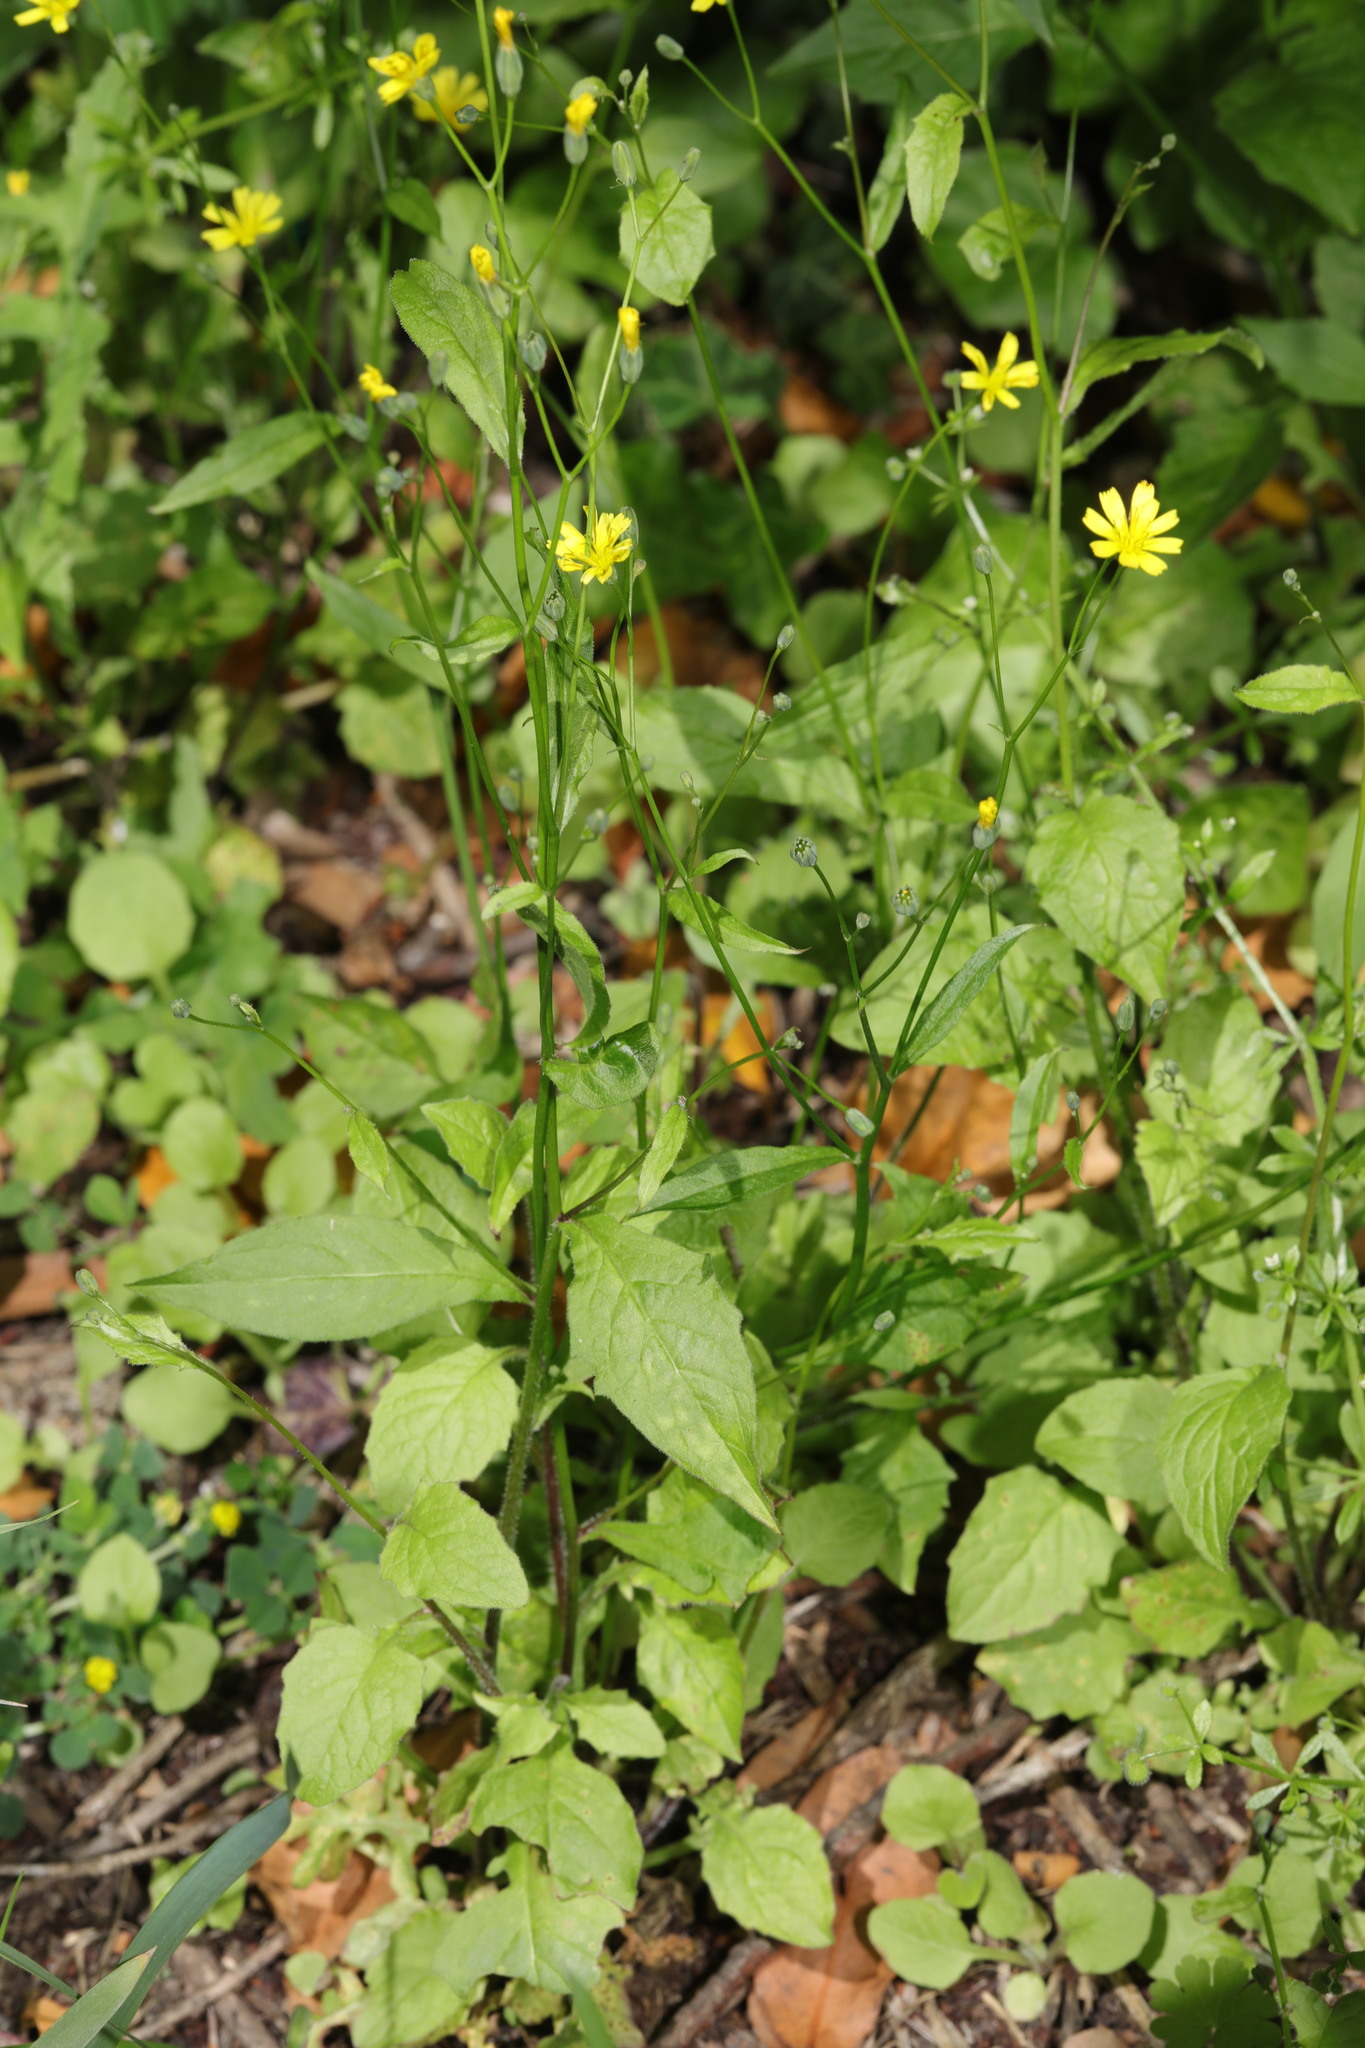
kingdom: Plantae
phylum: Tracheophyta
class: Magnoliopsida
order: Asterales
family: Asteraceae
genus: Lapsana
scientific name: Lapsana communis
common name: Nipplewort
